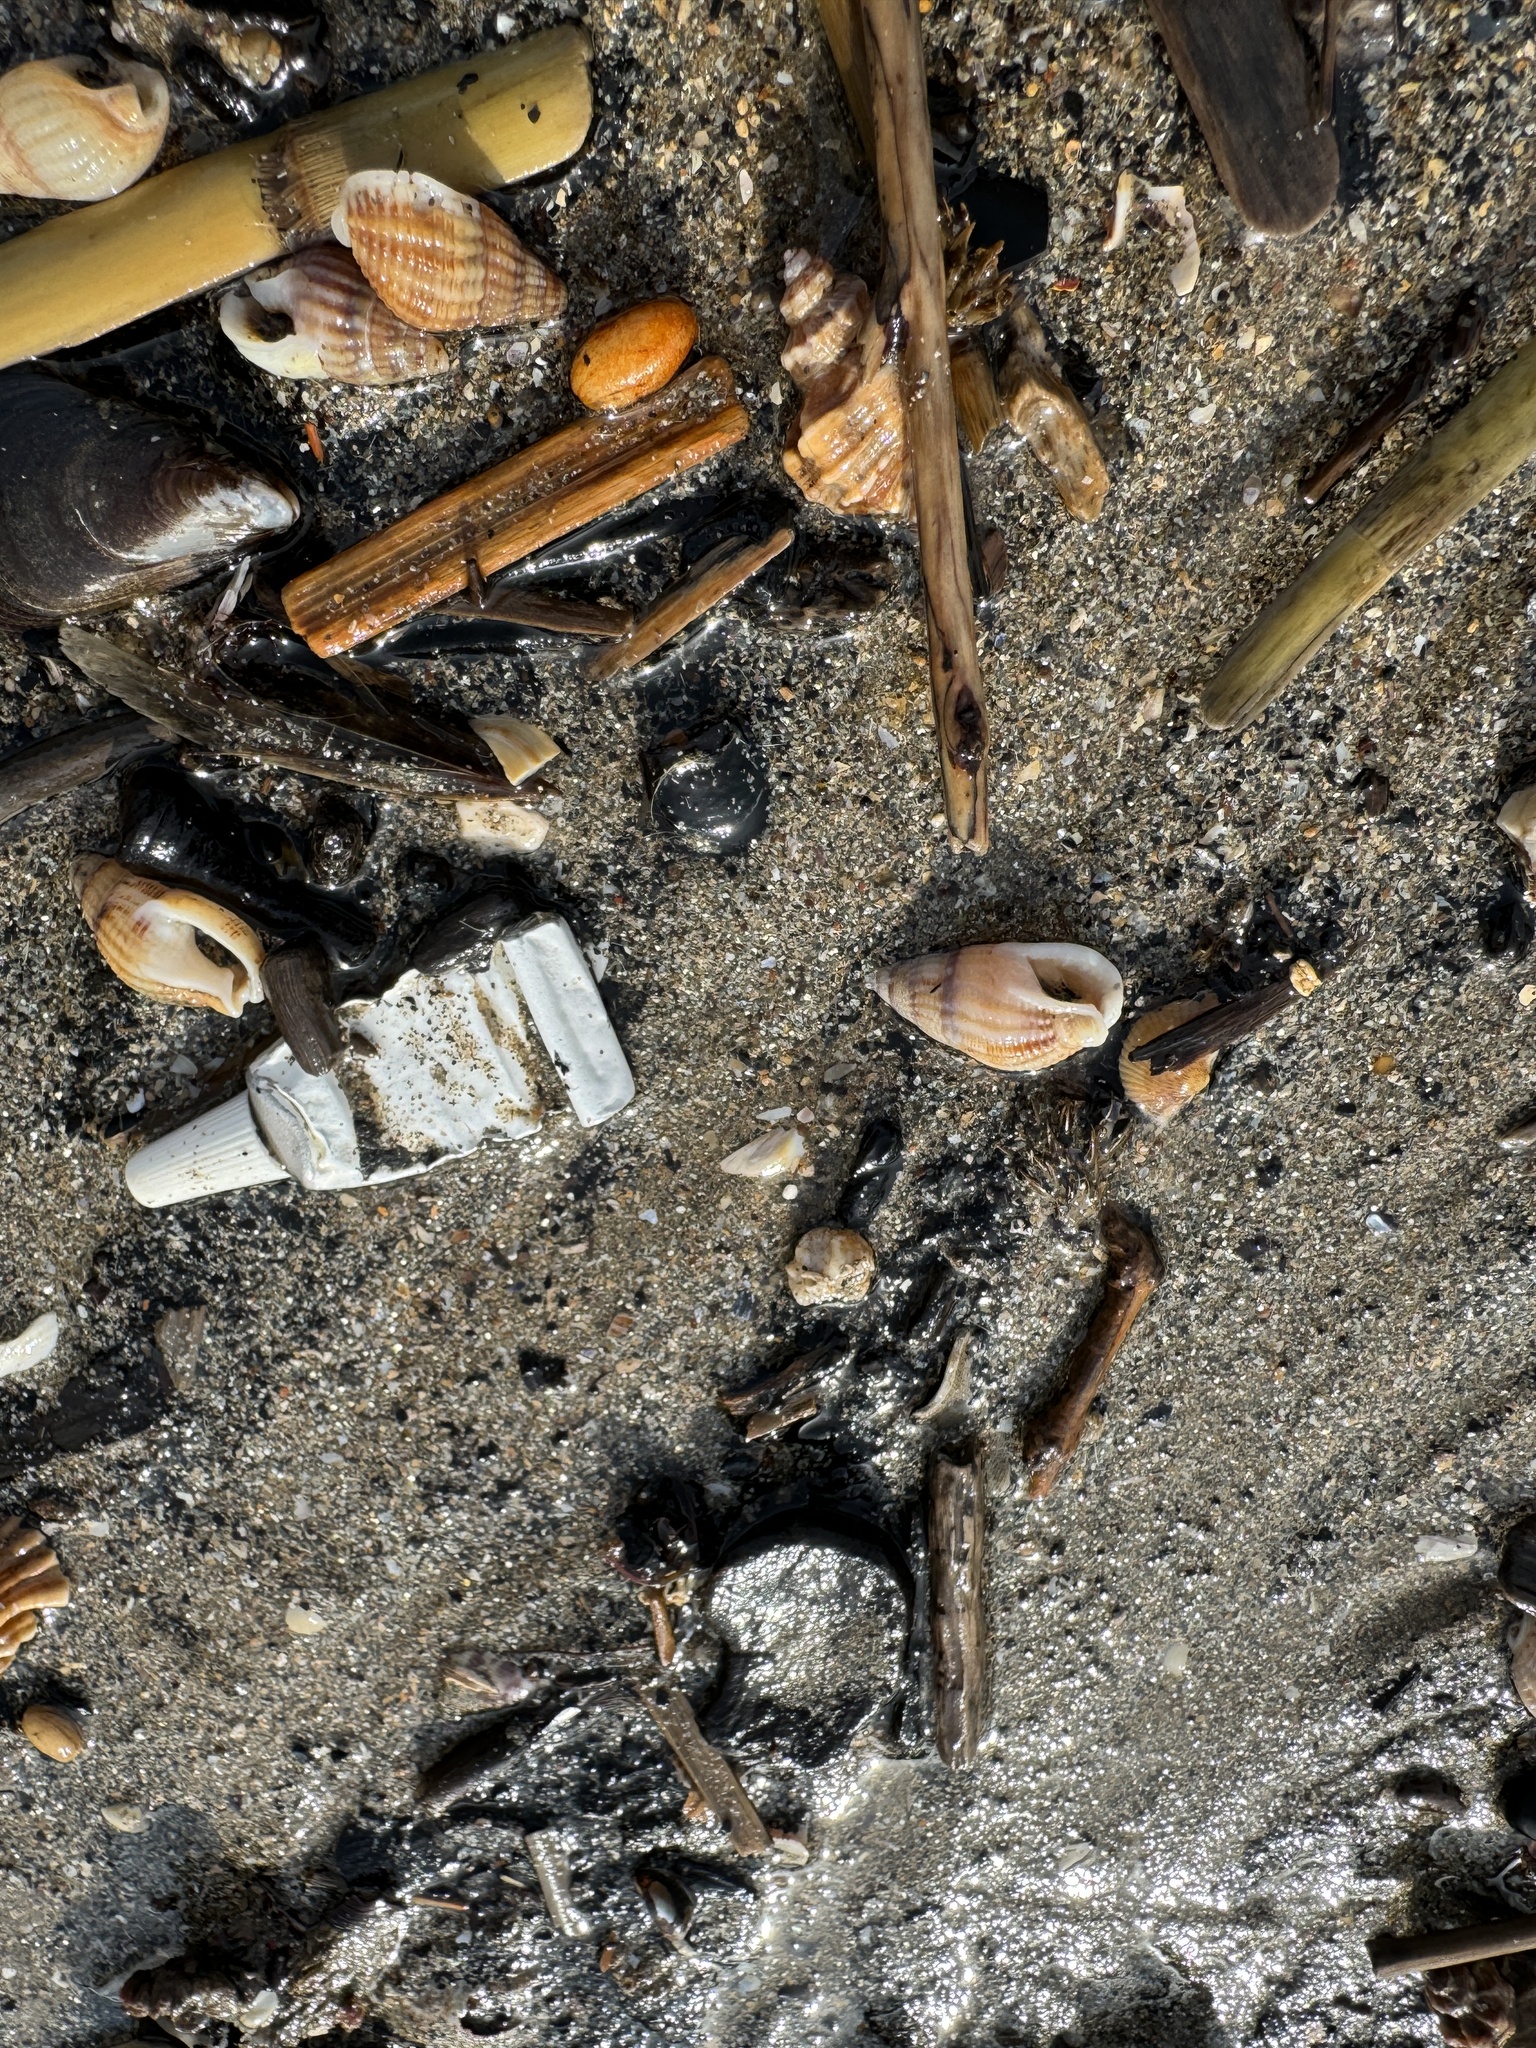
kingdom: Animalia
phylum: Mollusca
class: Gastropoda
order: Neogastropoda
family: Nassariidae
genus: Tritia
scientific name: Tritia reticulata
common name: Netted dog whelk
